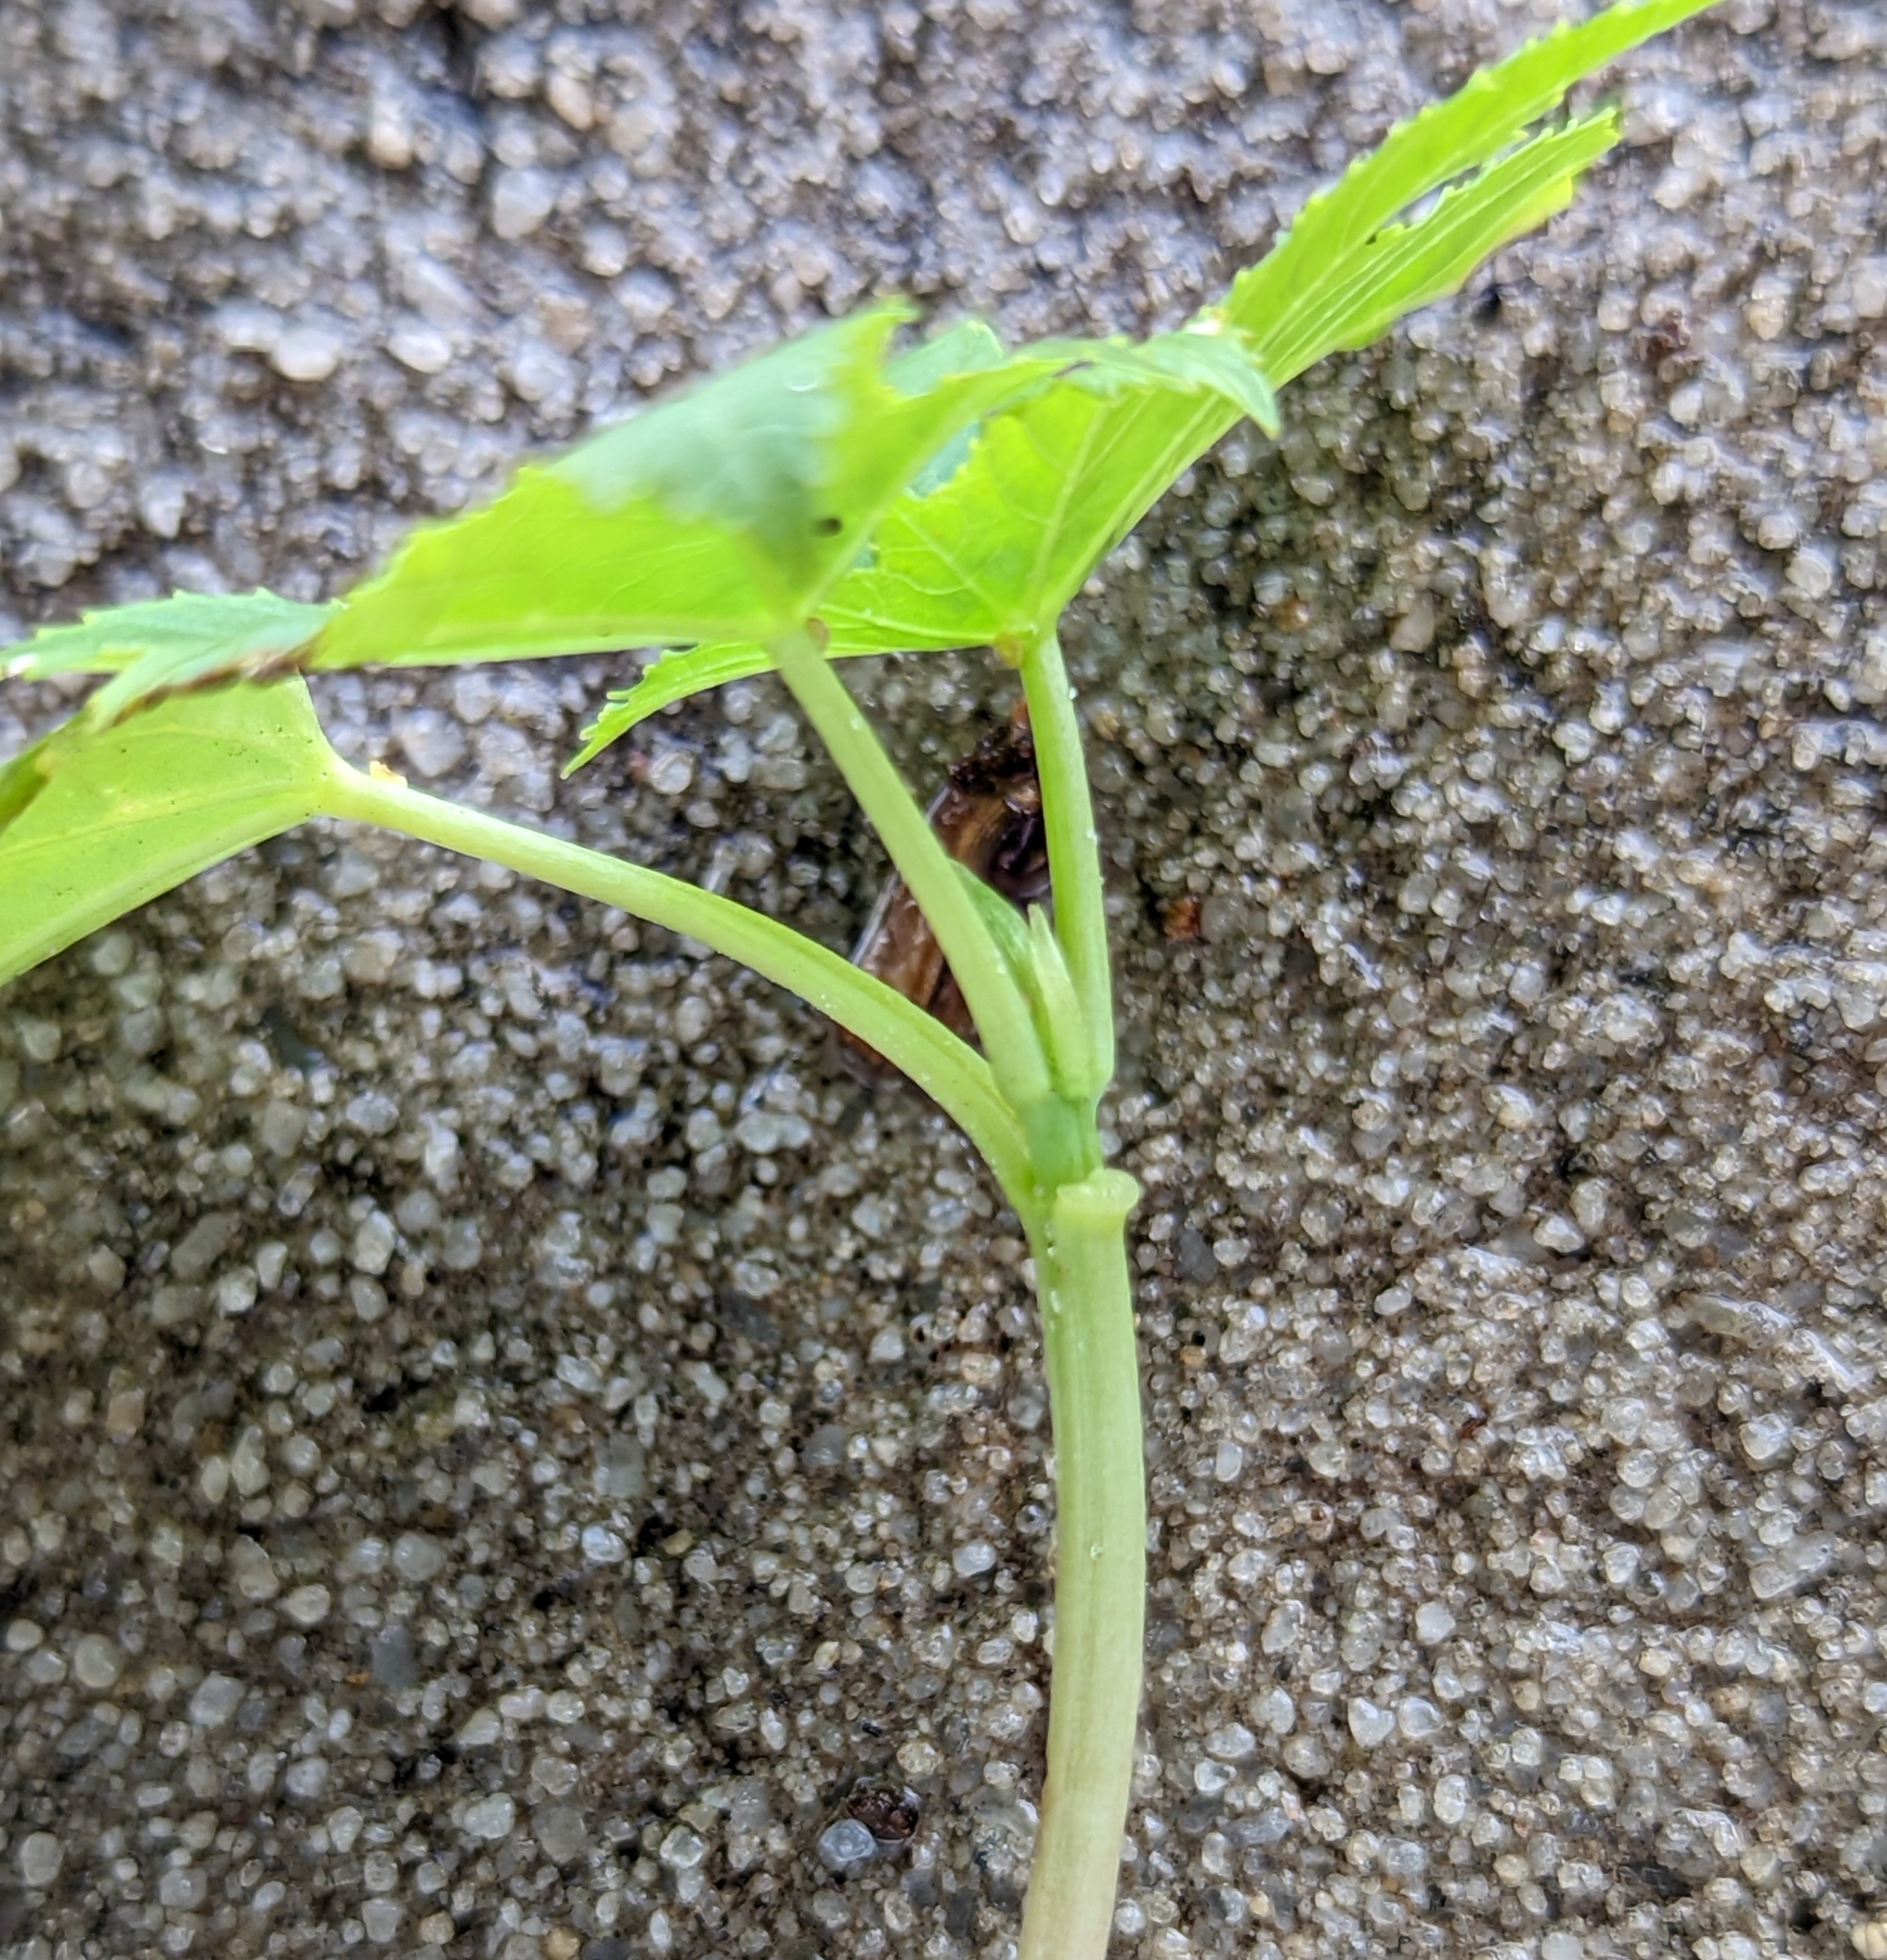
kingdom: Plantae
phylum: Tracheophyta
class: Magnoliopsida
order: Malpighiales
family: Euphorbiaceae
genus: Ricinus
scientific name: Ricinus communis
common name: Castor-oil-plant
